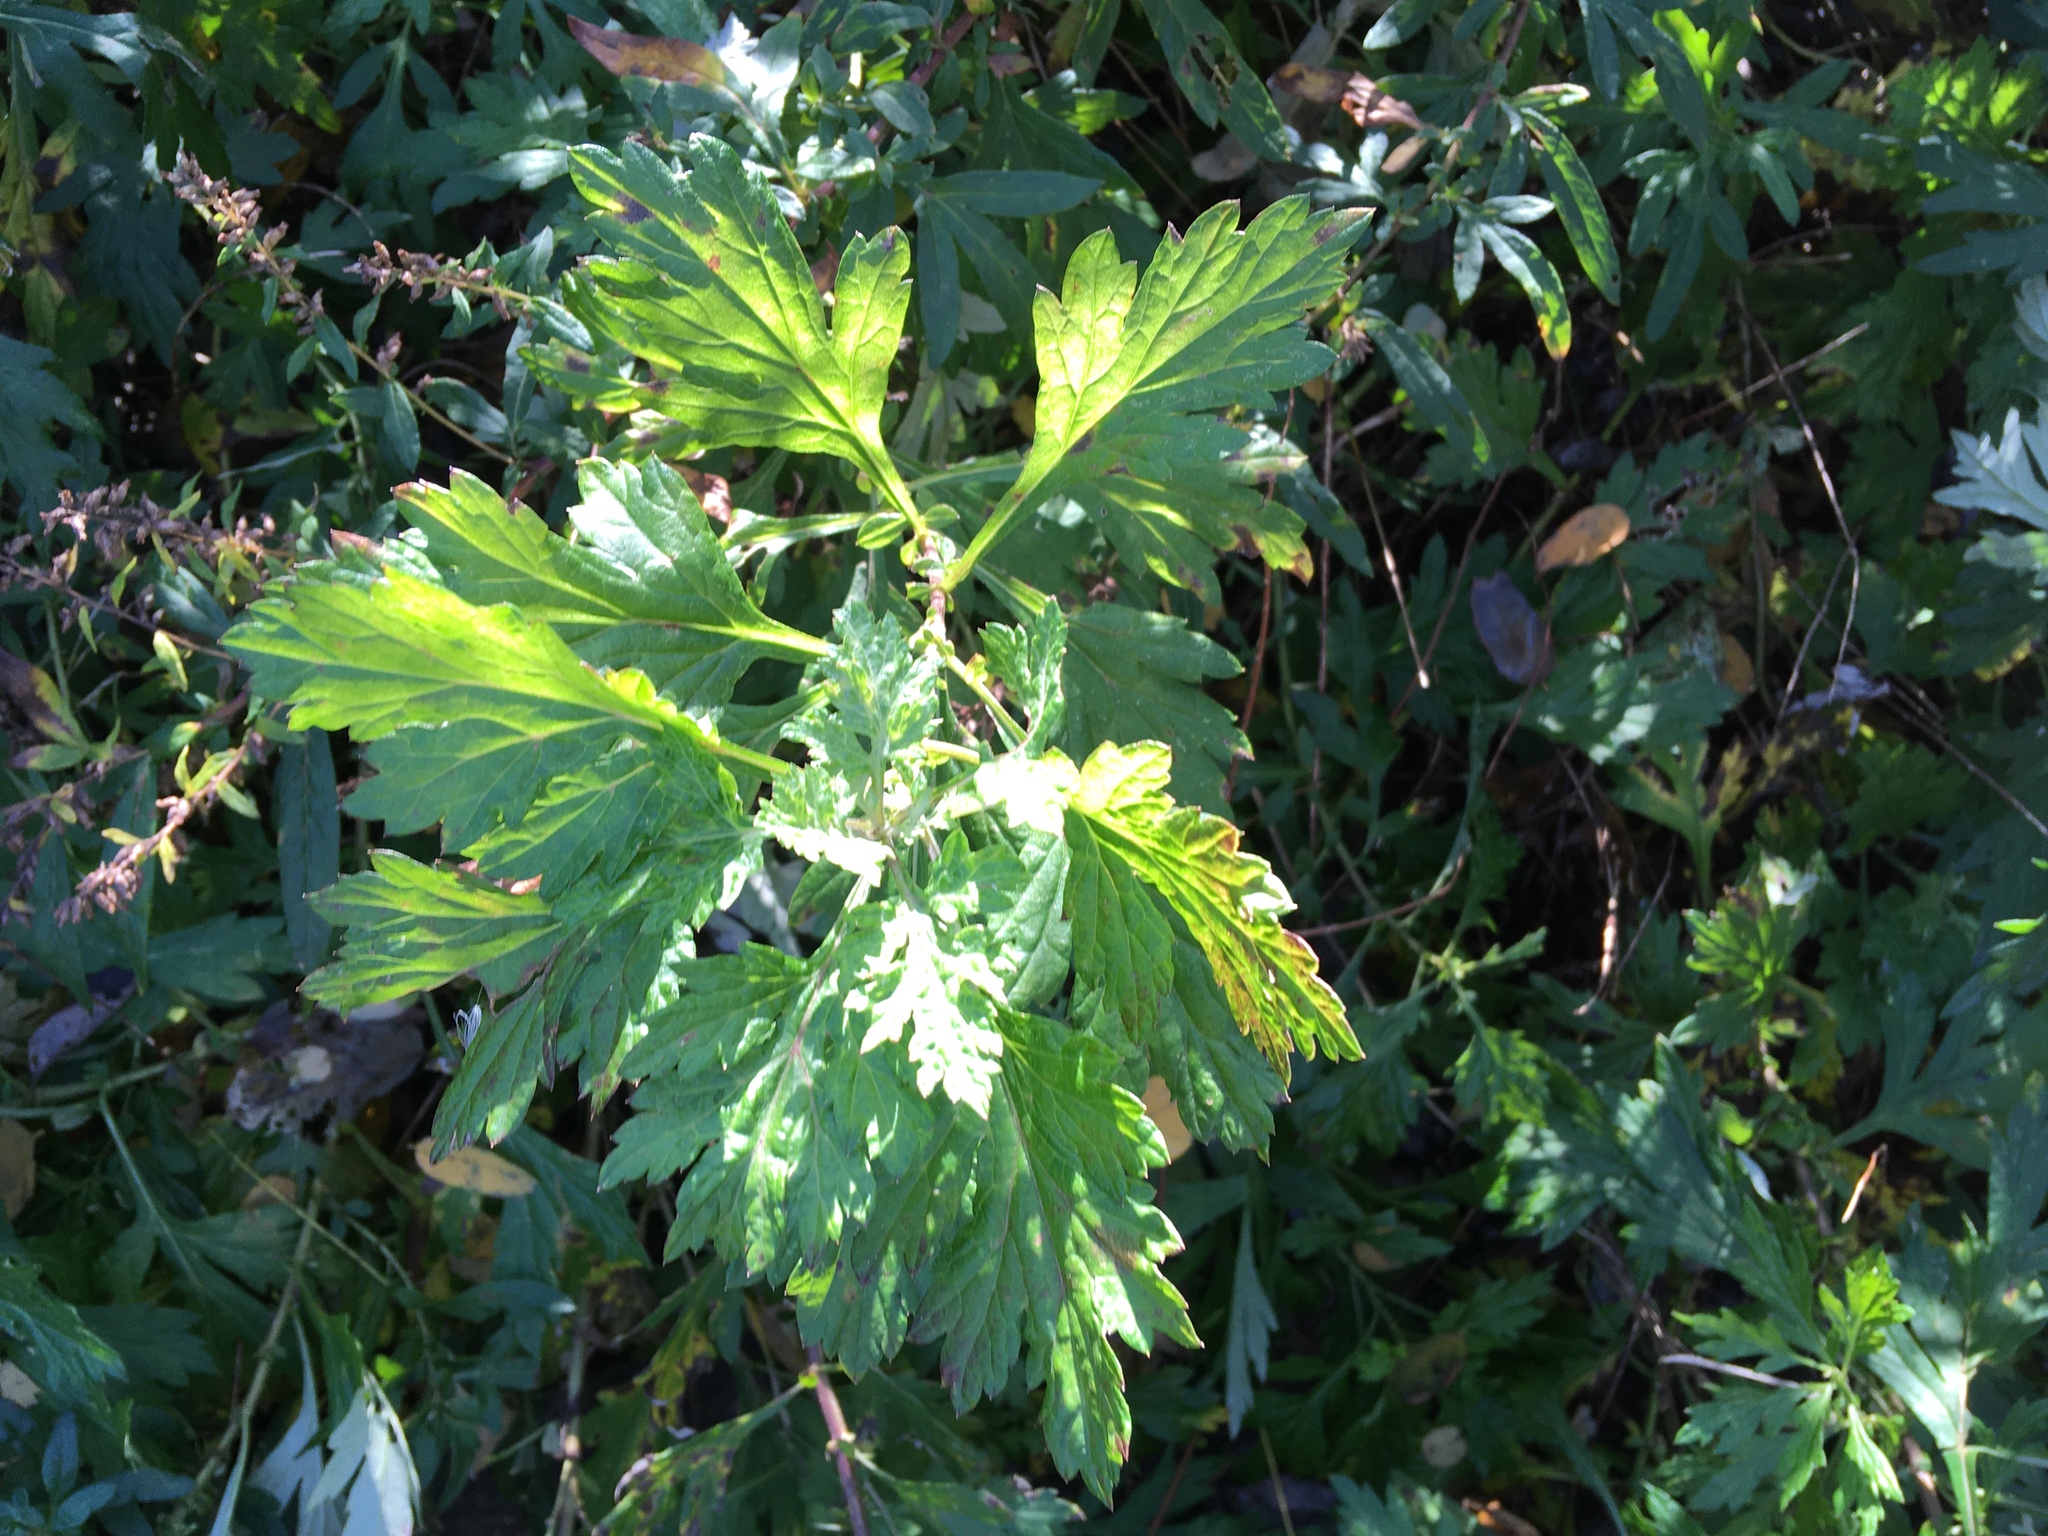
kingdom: Plantae
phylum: Tracheophyta
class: Magnoliopsida
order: Asterales
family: Asteraceae
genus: Artemisia
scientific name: Artemisia vulgaris
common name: Mugwort
